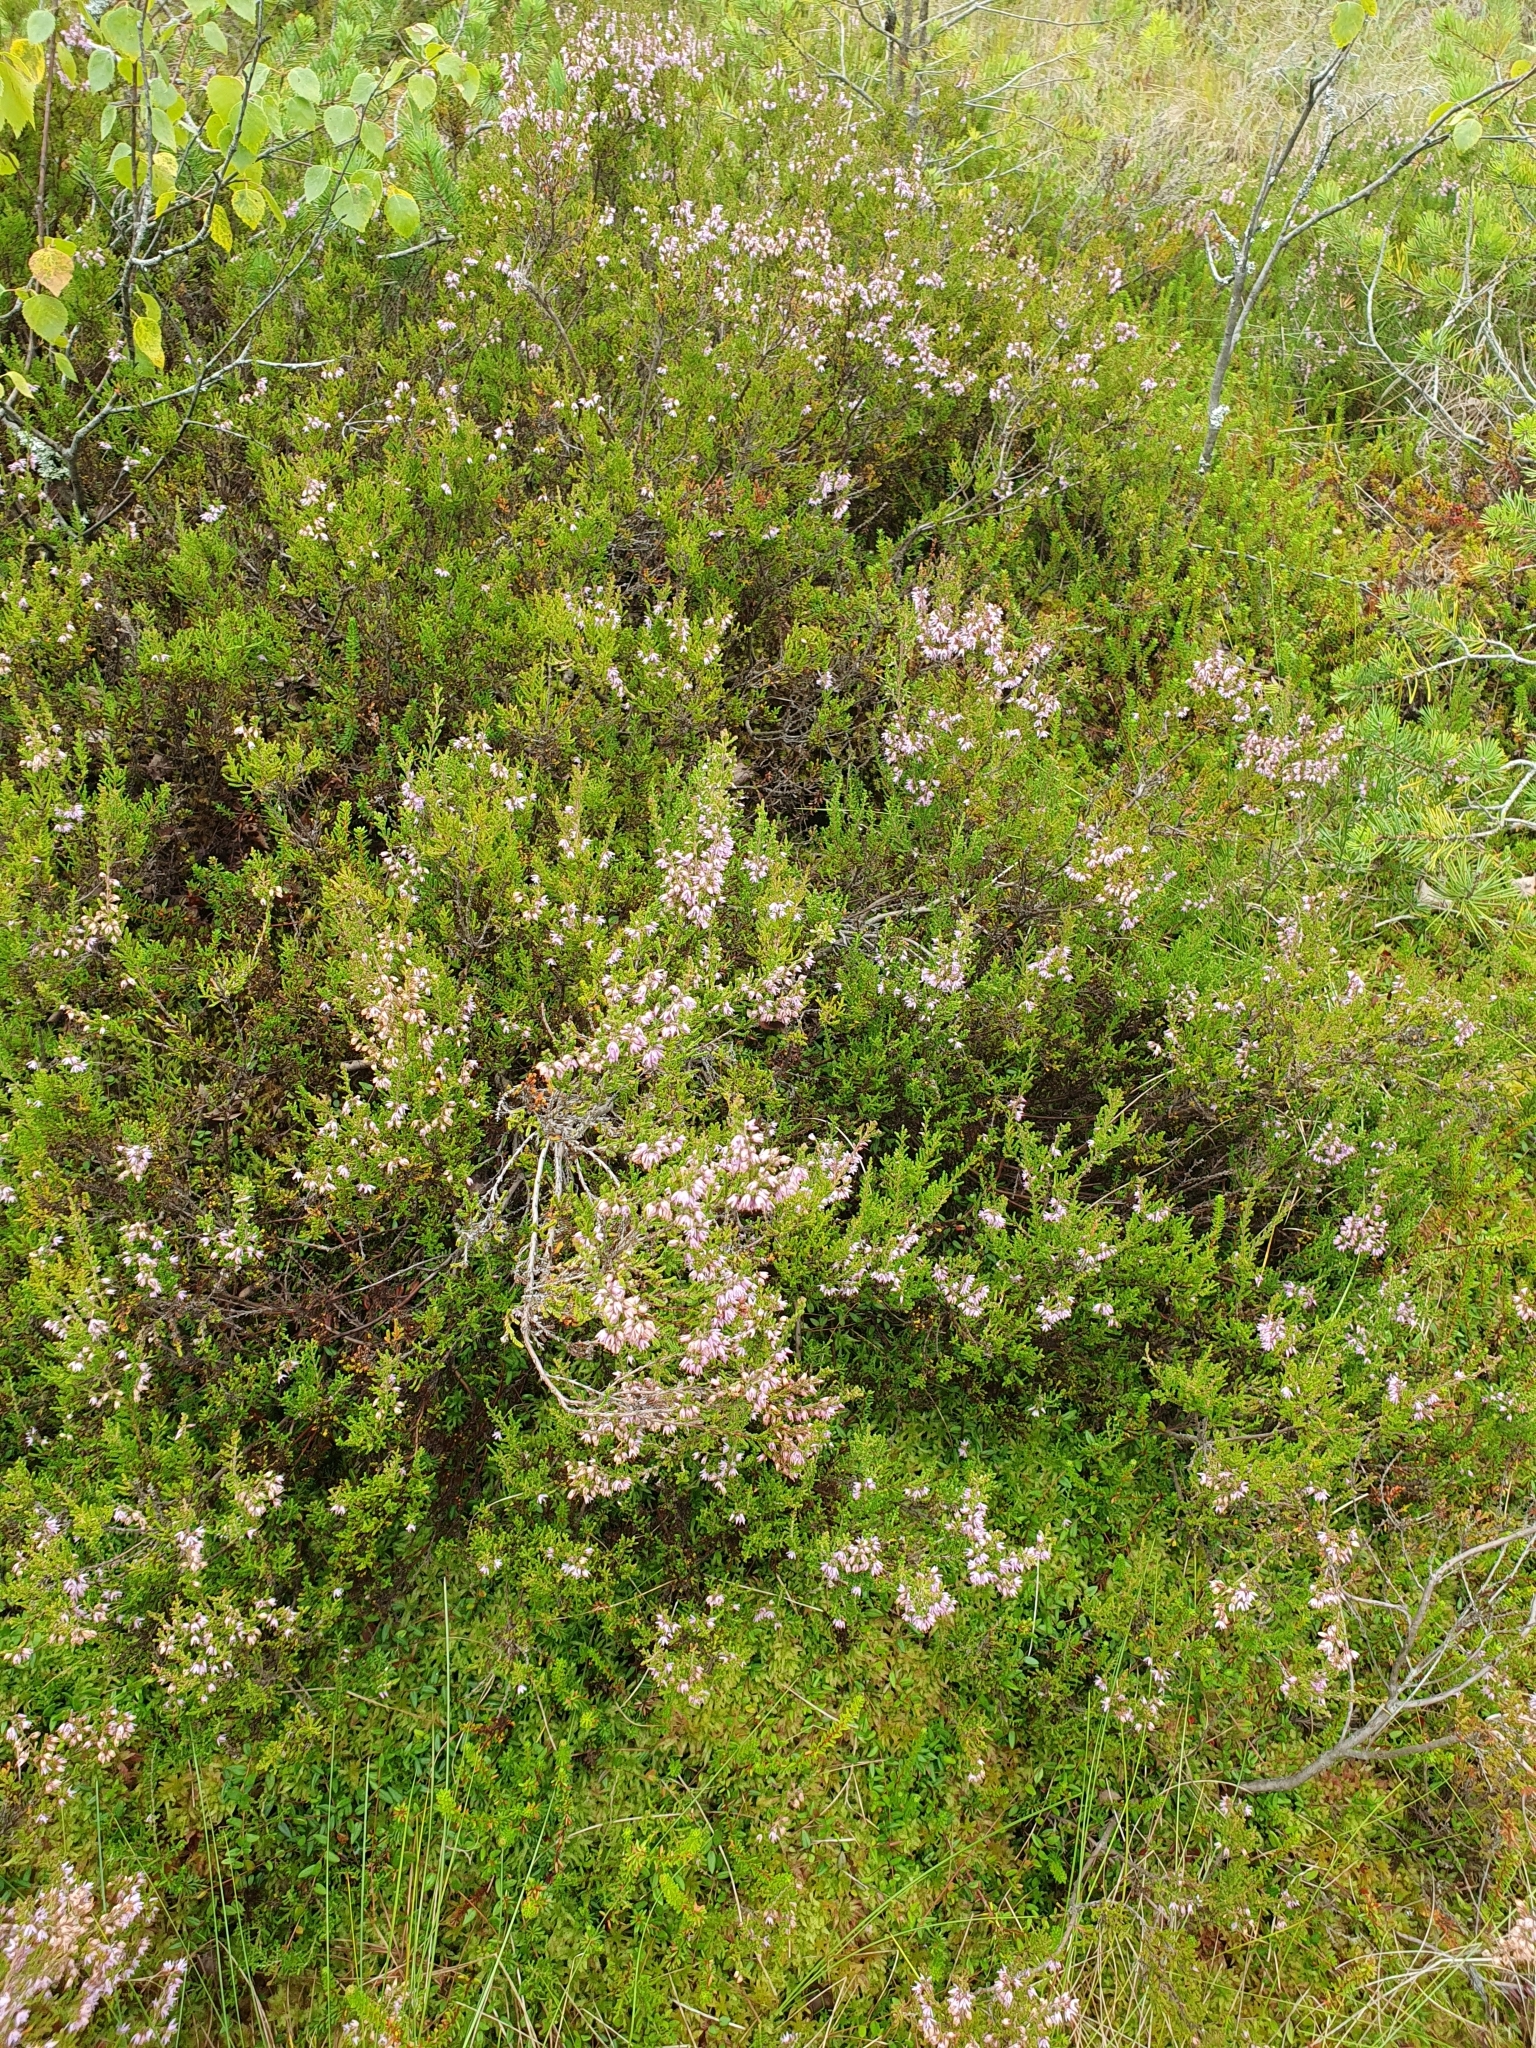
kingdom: Plantae
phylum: Tracheophyta
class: Magnoliopsida
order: Ericales
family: Ericaceae
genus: Calluna
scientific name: Calluna vulgaris
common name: Heather
